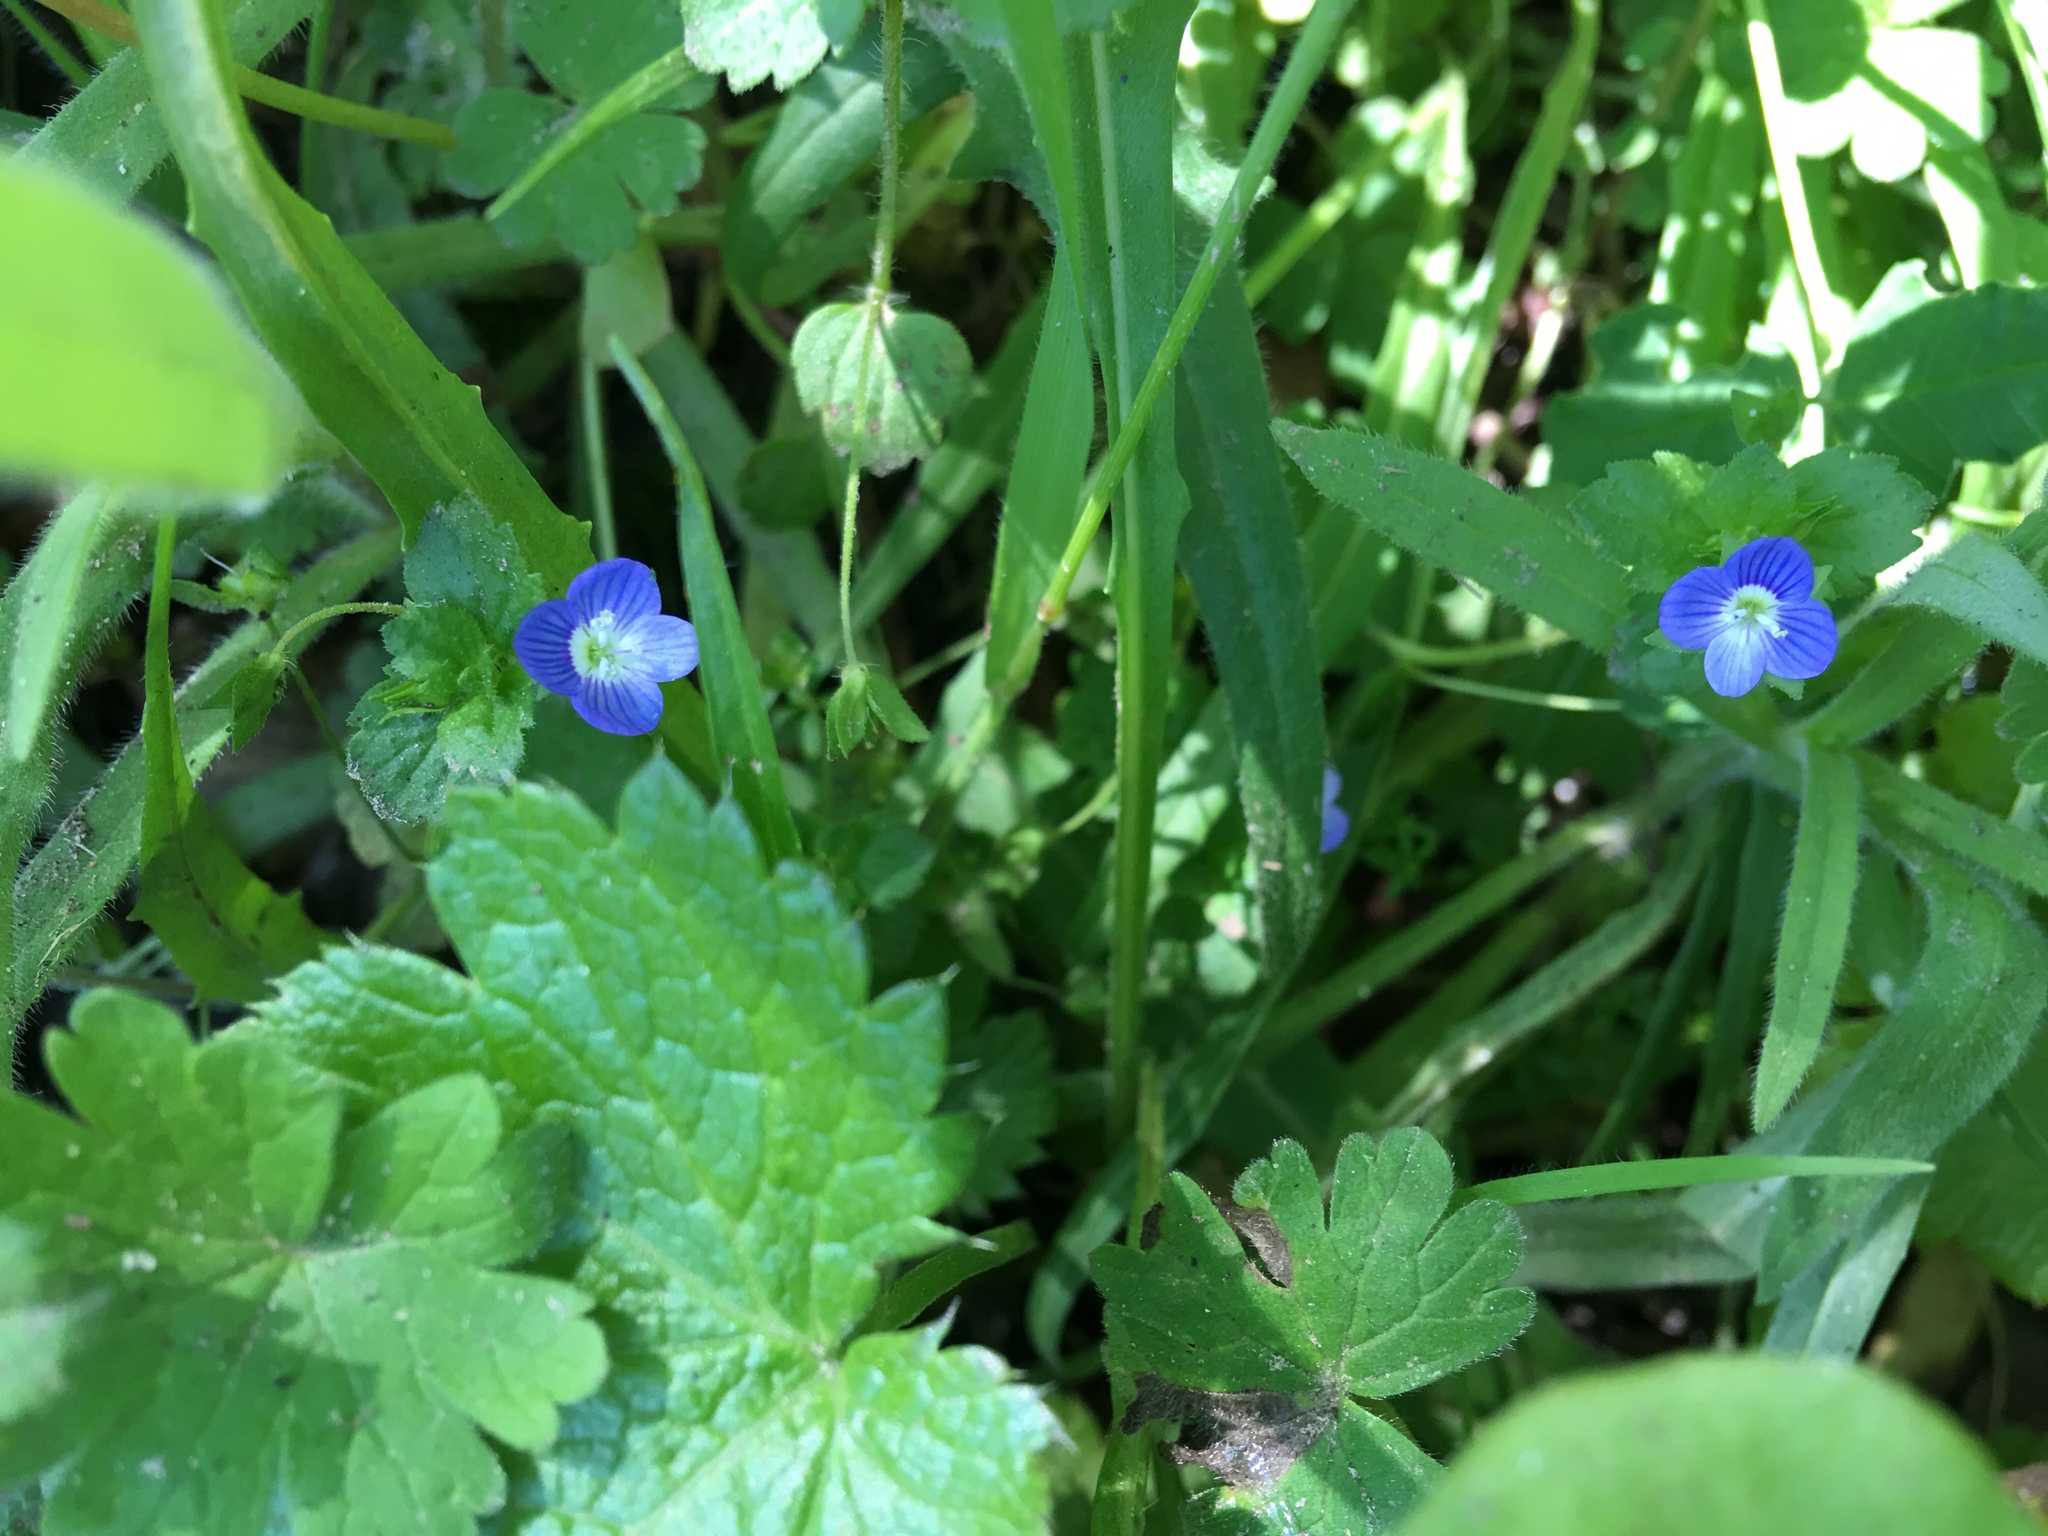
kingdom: Plantae
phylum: Tracheophyta
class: Magnoliopsida
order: Lamiales
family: Plantaginaceae
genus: Veronica
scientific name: Veronica persica
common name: Common field-speedwell
